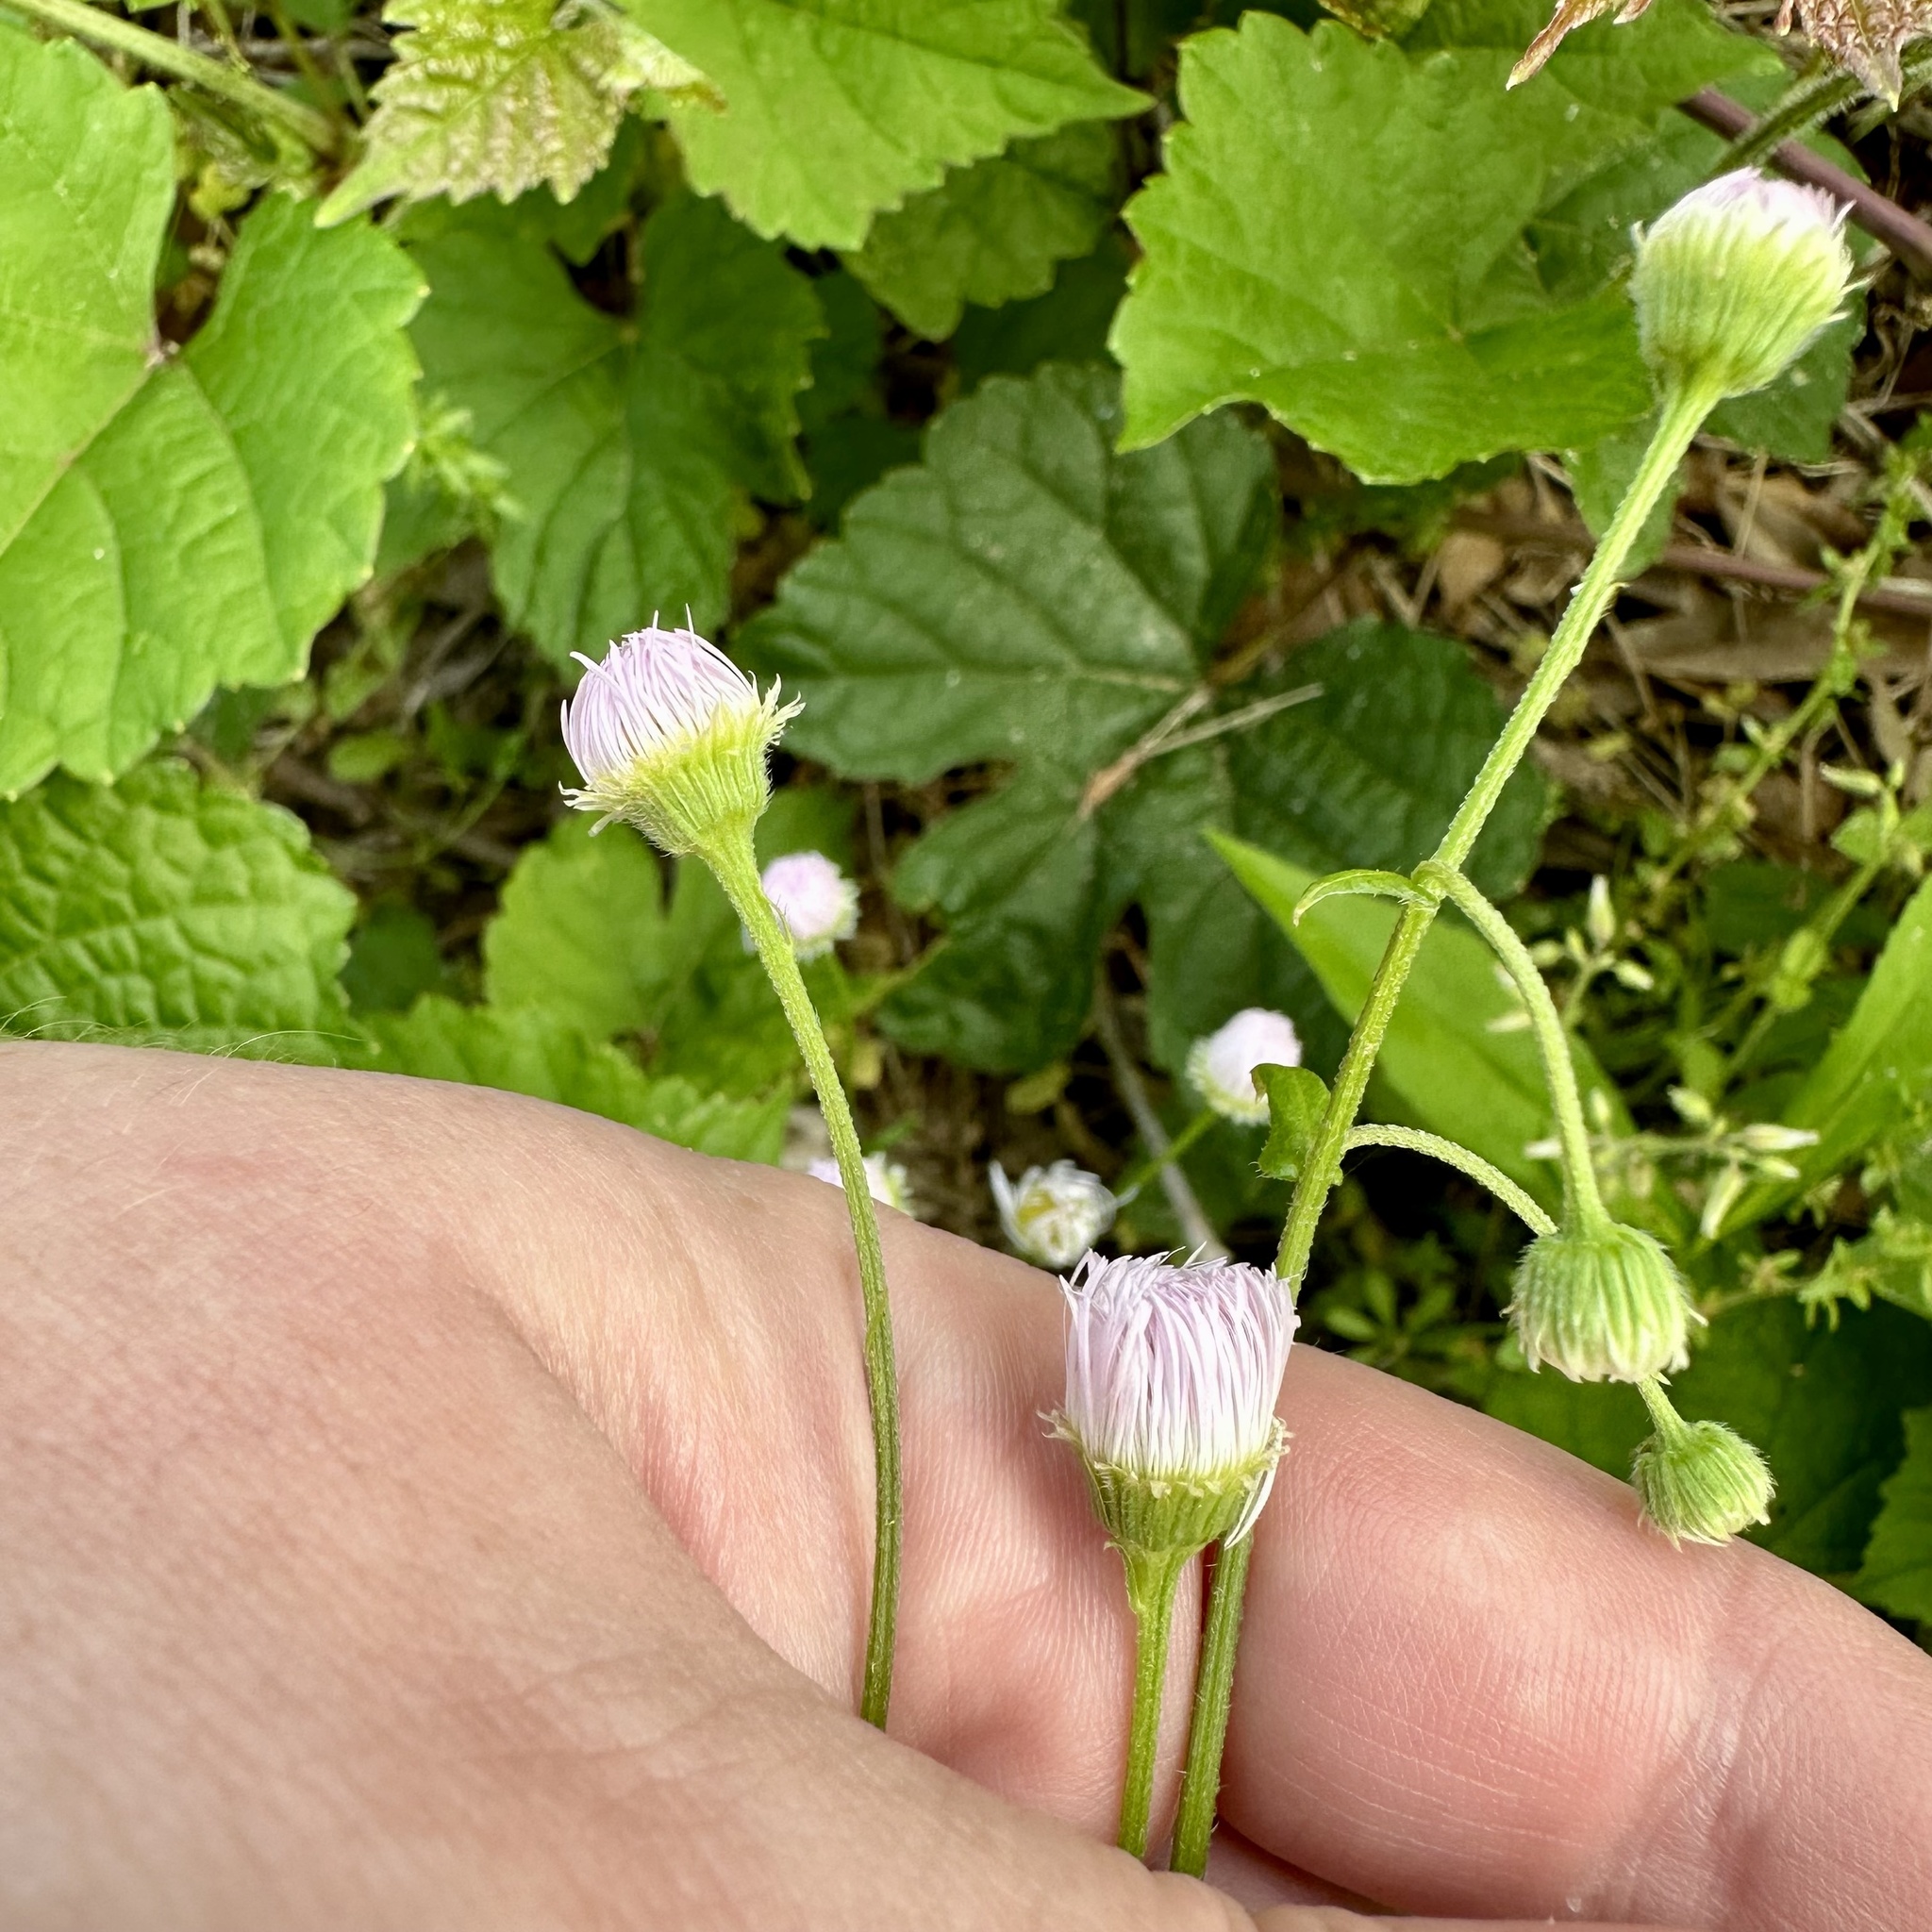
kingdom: Plantae
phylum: Tracheophyta
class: Magnoliopsida
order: Asterales
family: Asteraceae
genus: Erigeron
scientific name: Erigeron philadelphicus
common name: Robin's-plantain
